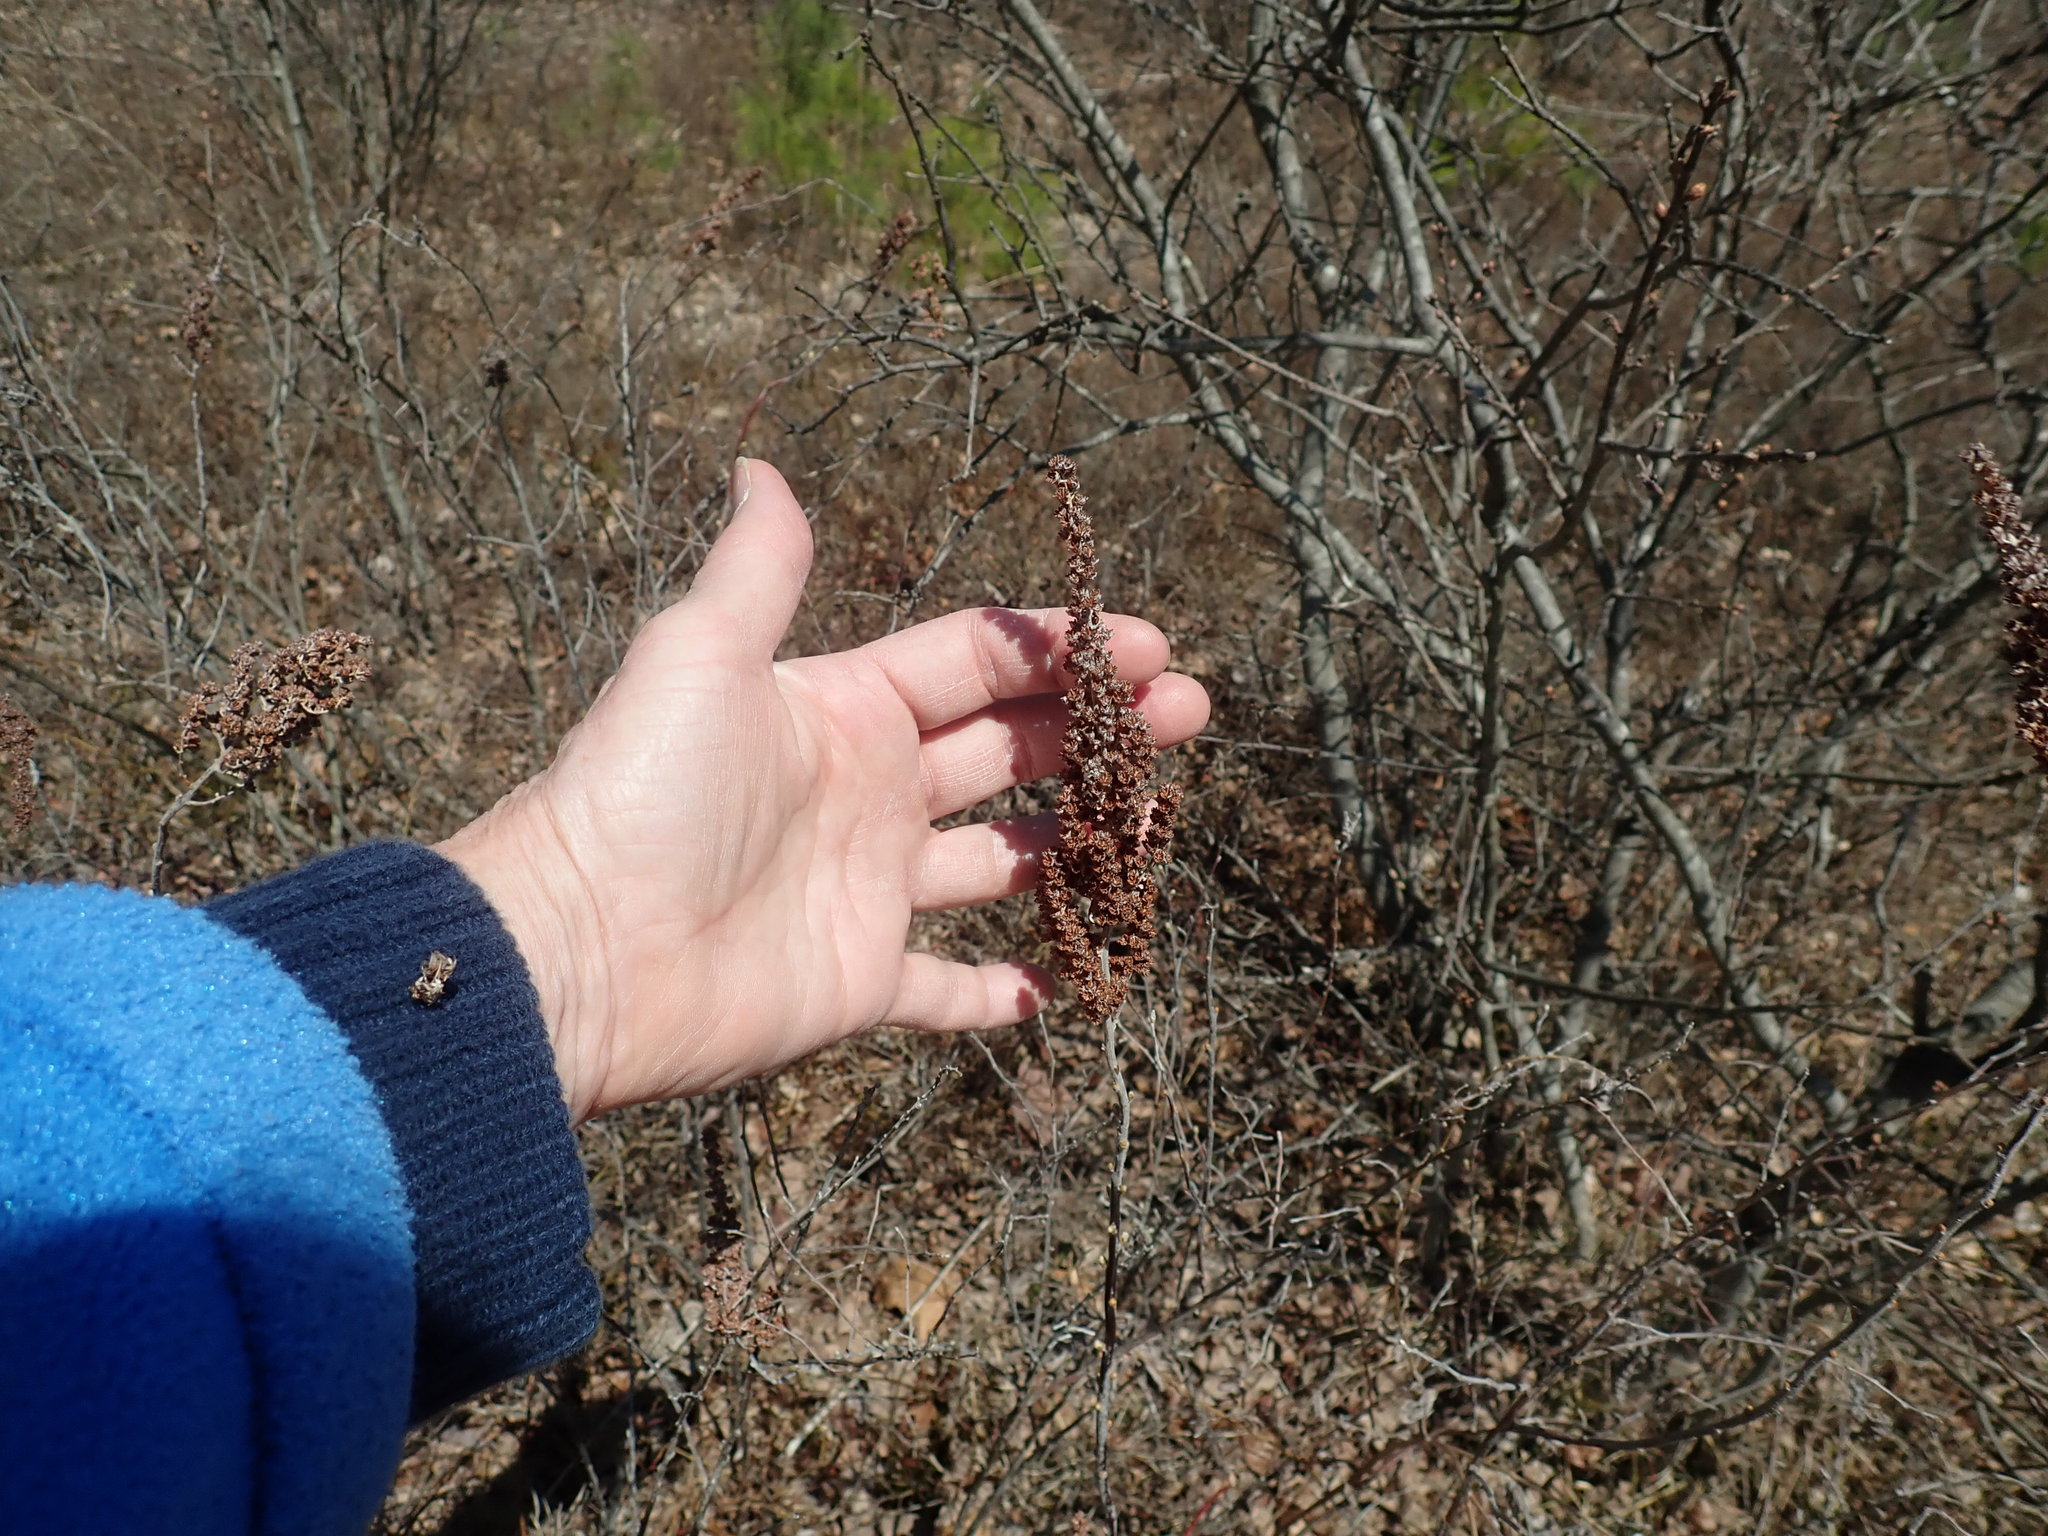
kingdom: Plantae
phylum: Tracheophyta
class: Magnoliopsida
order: Rosales
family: Rosaceae
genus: Spiraea
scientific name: Spiraea tomentosa
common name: Hardhack
